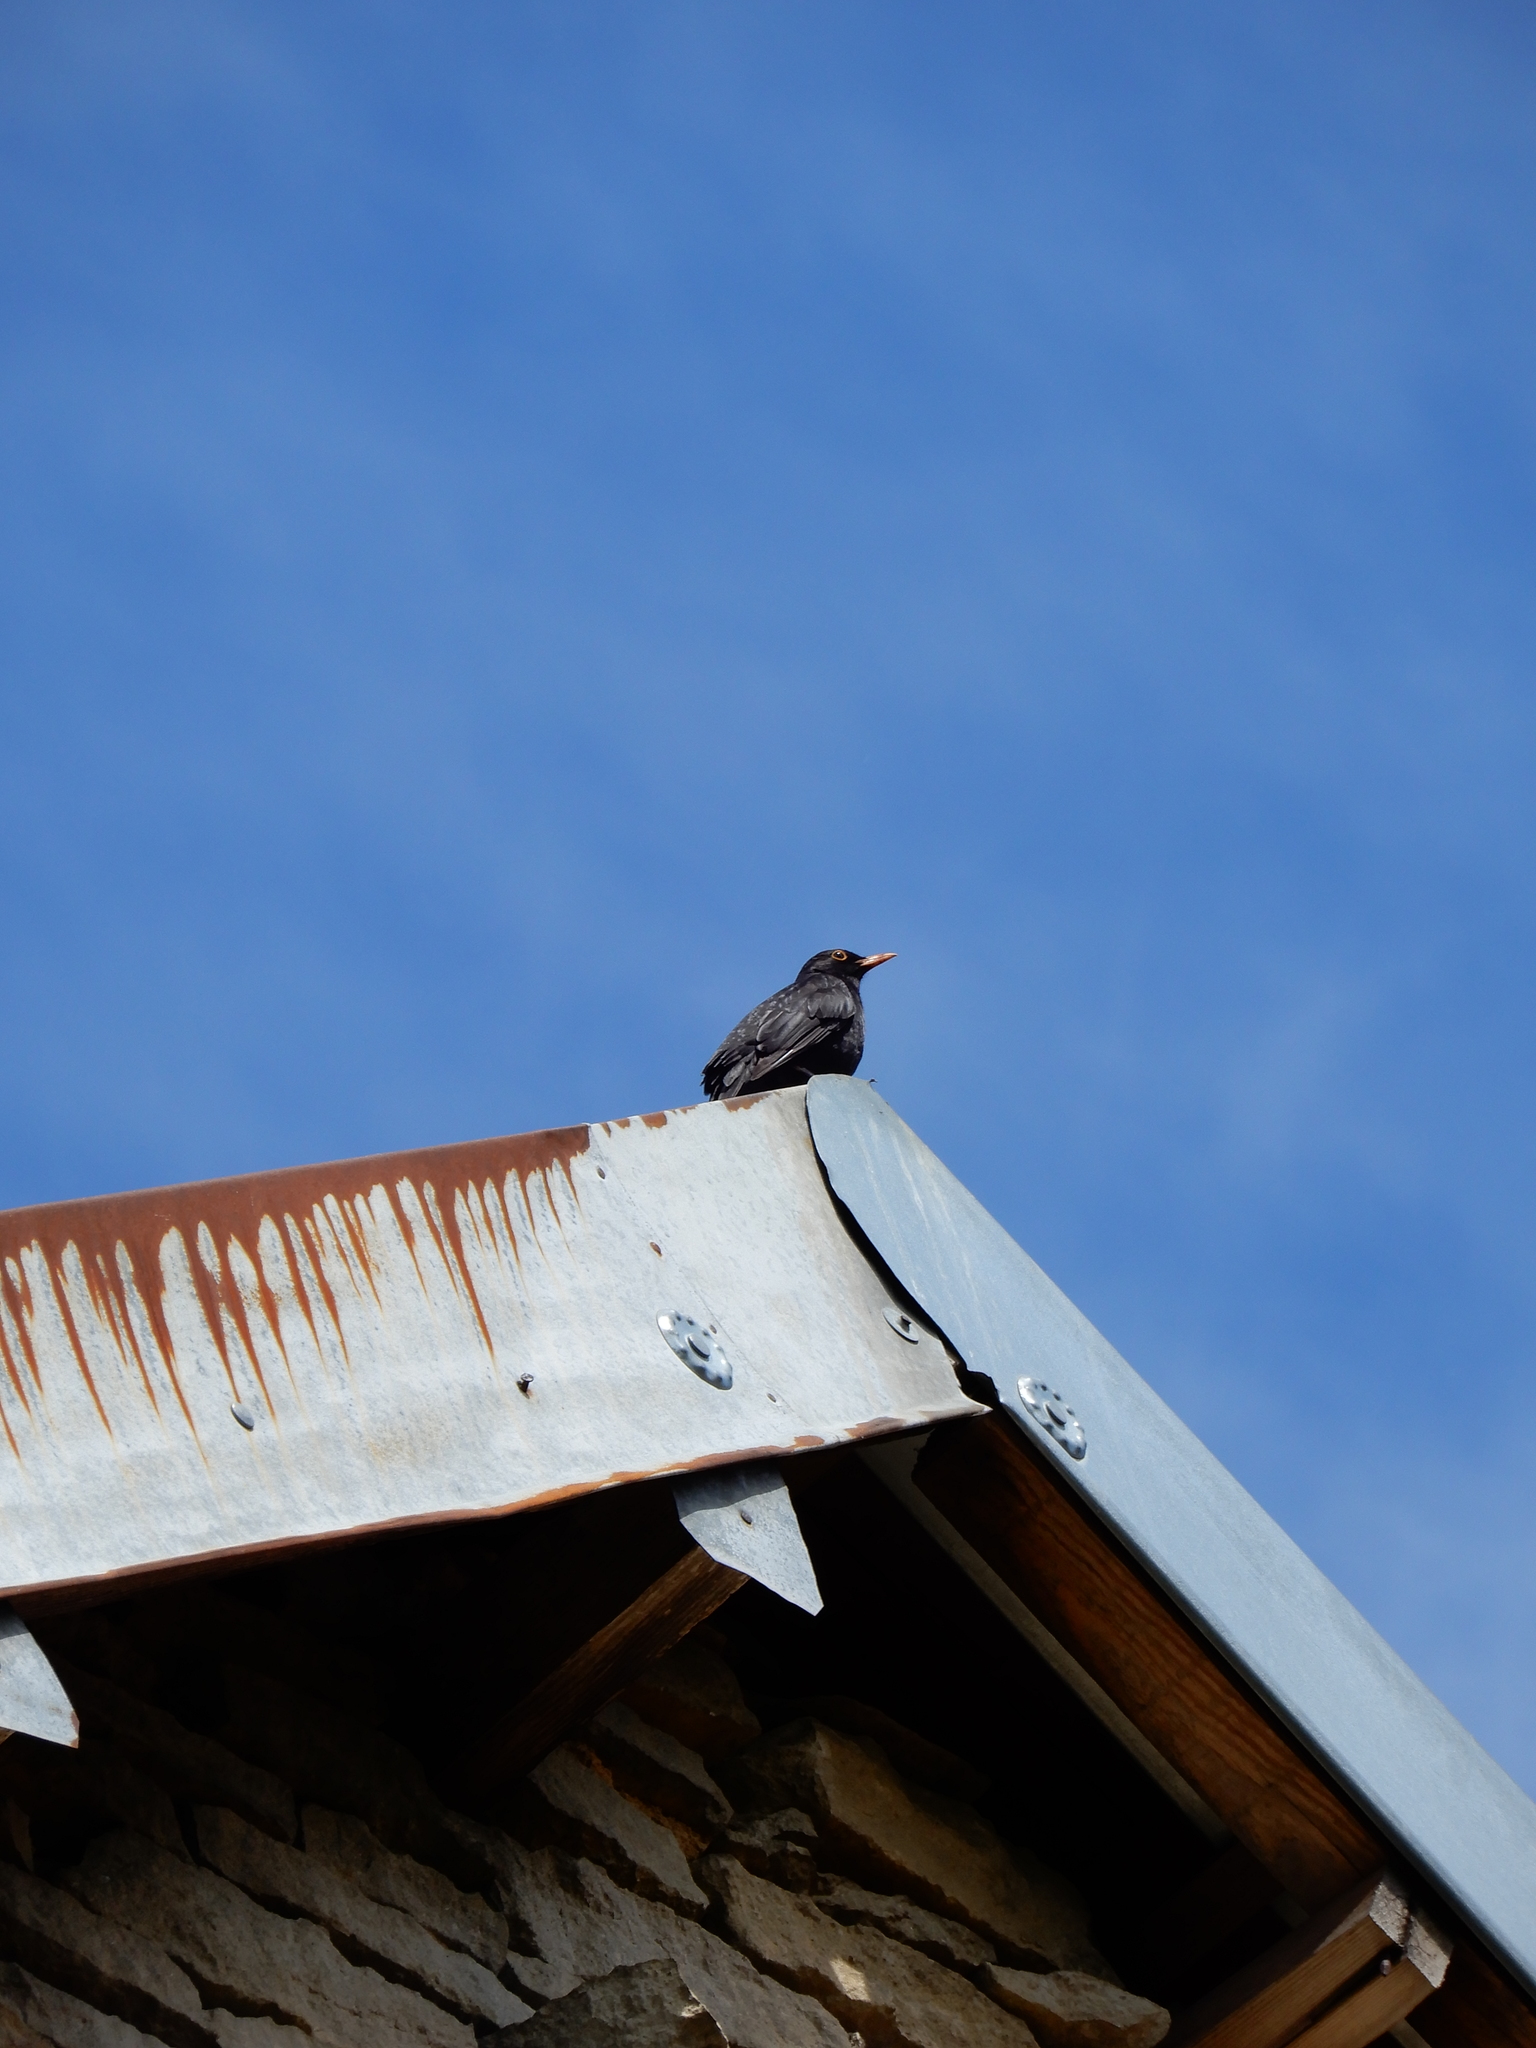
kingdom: Animalia
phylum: Chordata
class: Aves
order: Passeriformes
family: Turdidae
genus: Turdus
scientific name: Turdus merula
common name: Common blackbird
